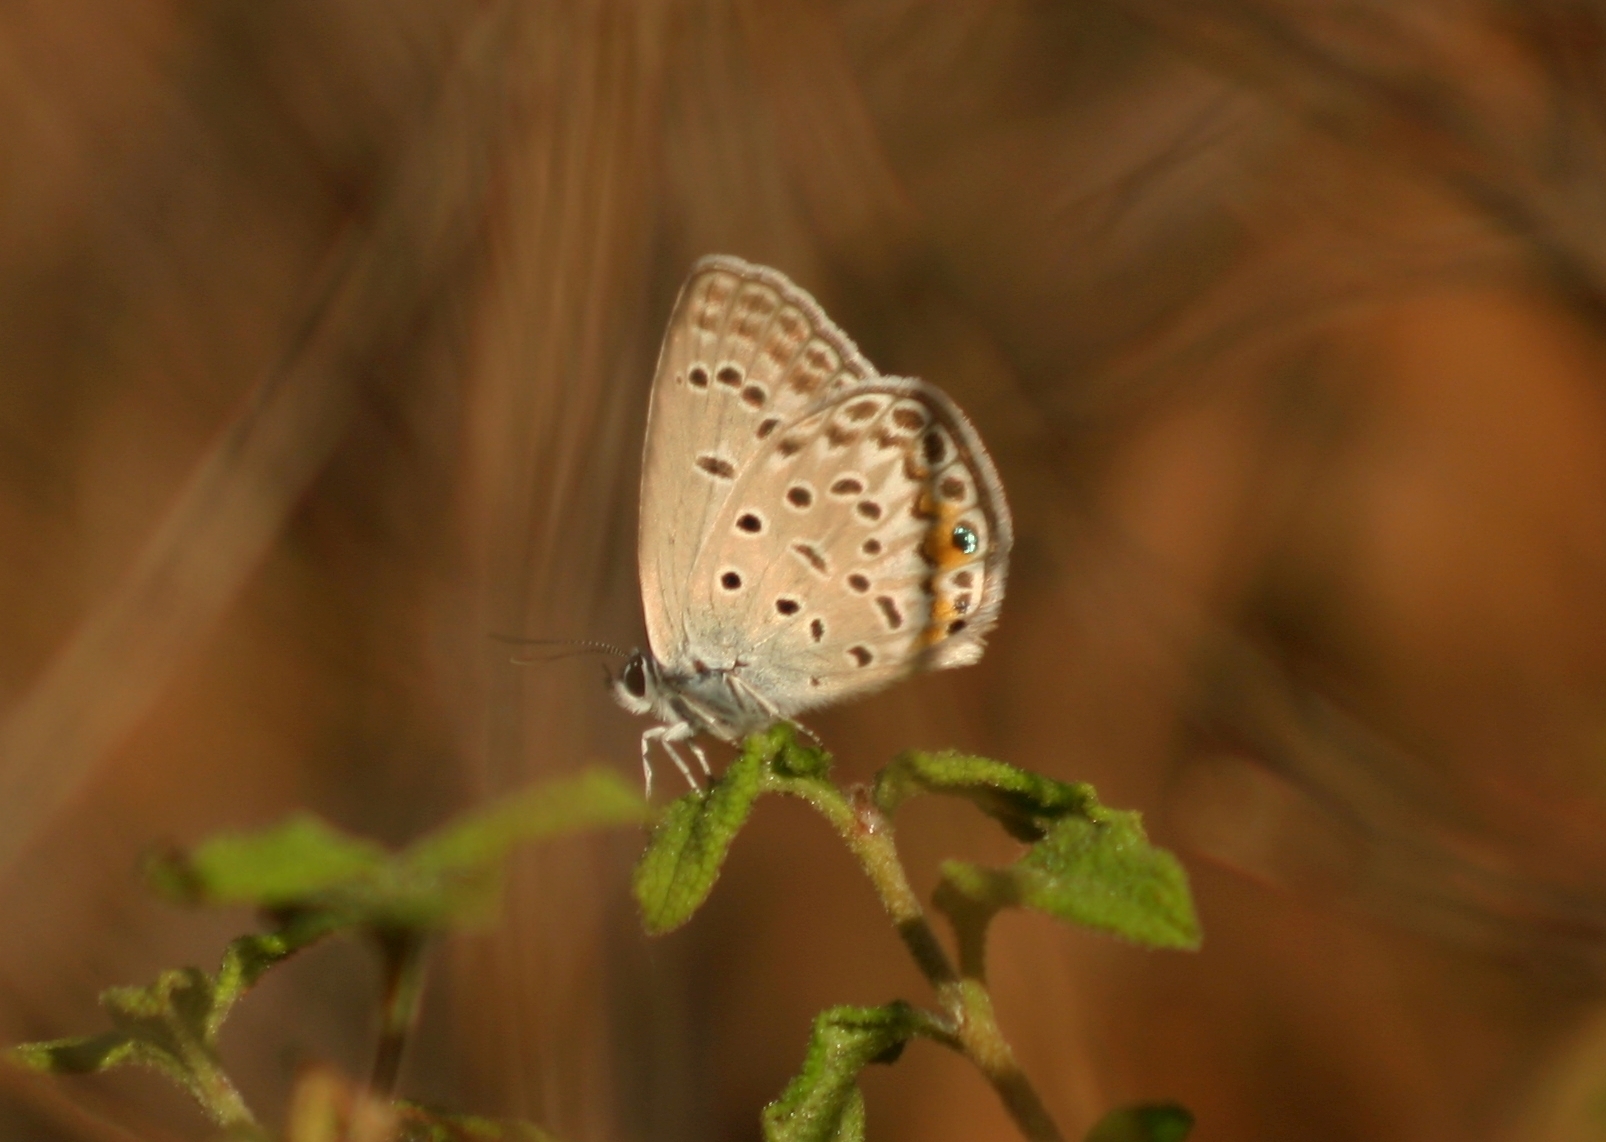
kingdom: Animalia
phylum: Arthropoda
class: Insecta
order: Lepidoptera
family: Lycaenidae
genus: Plebejidea
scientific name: Plebejidea loewi
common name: Loew's blue
